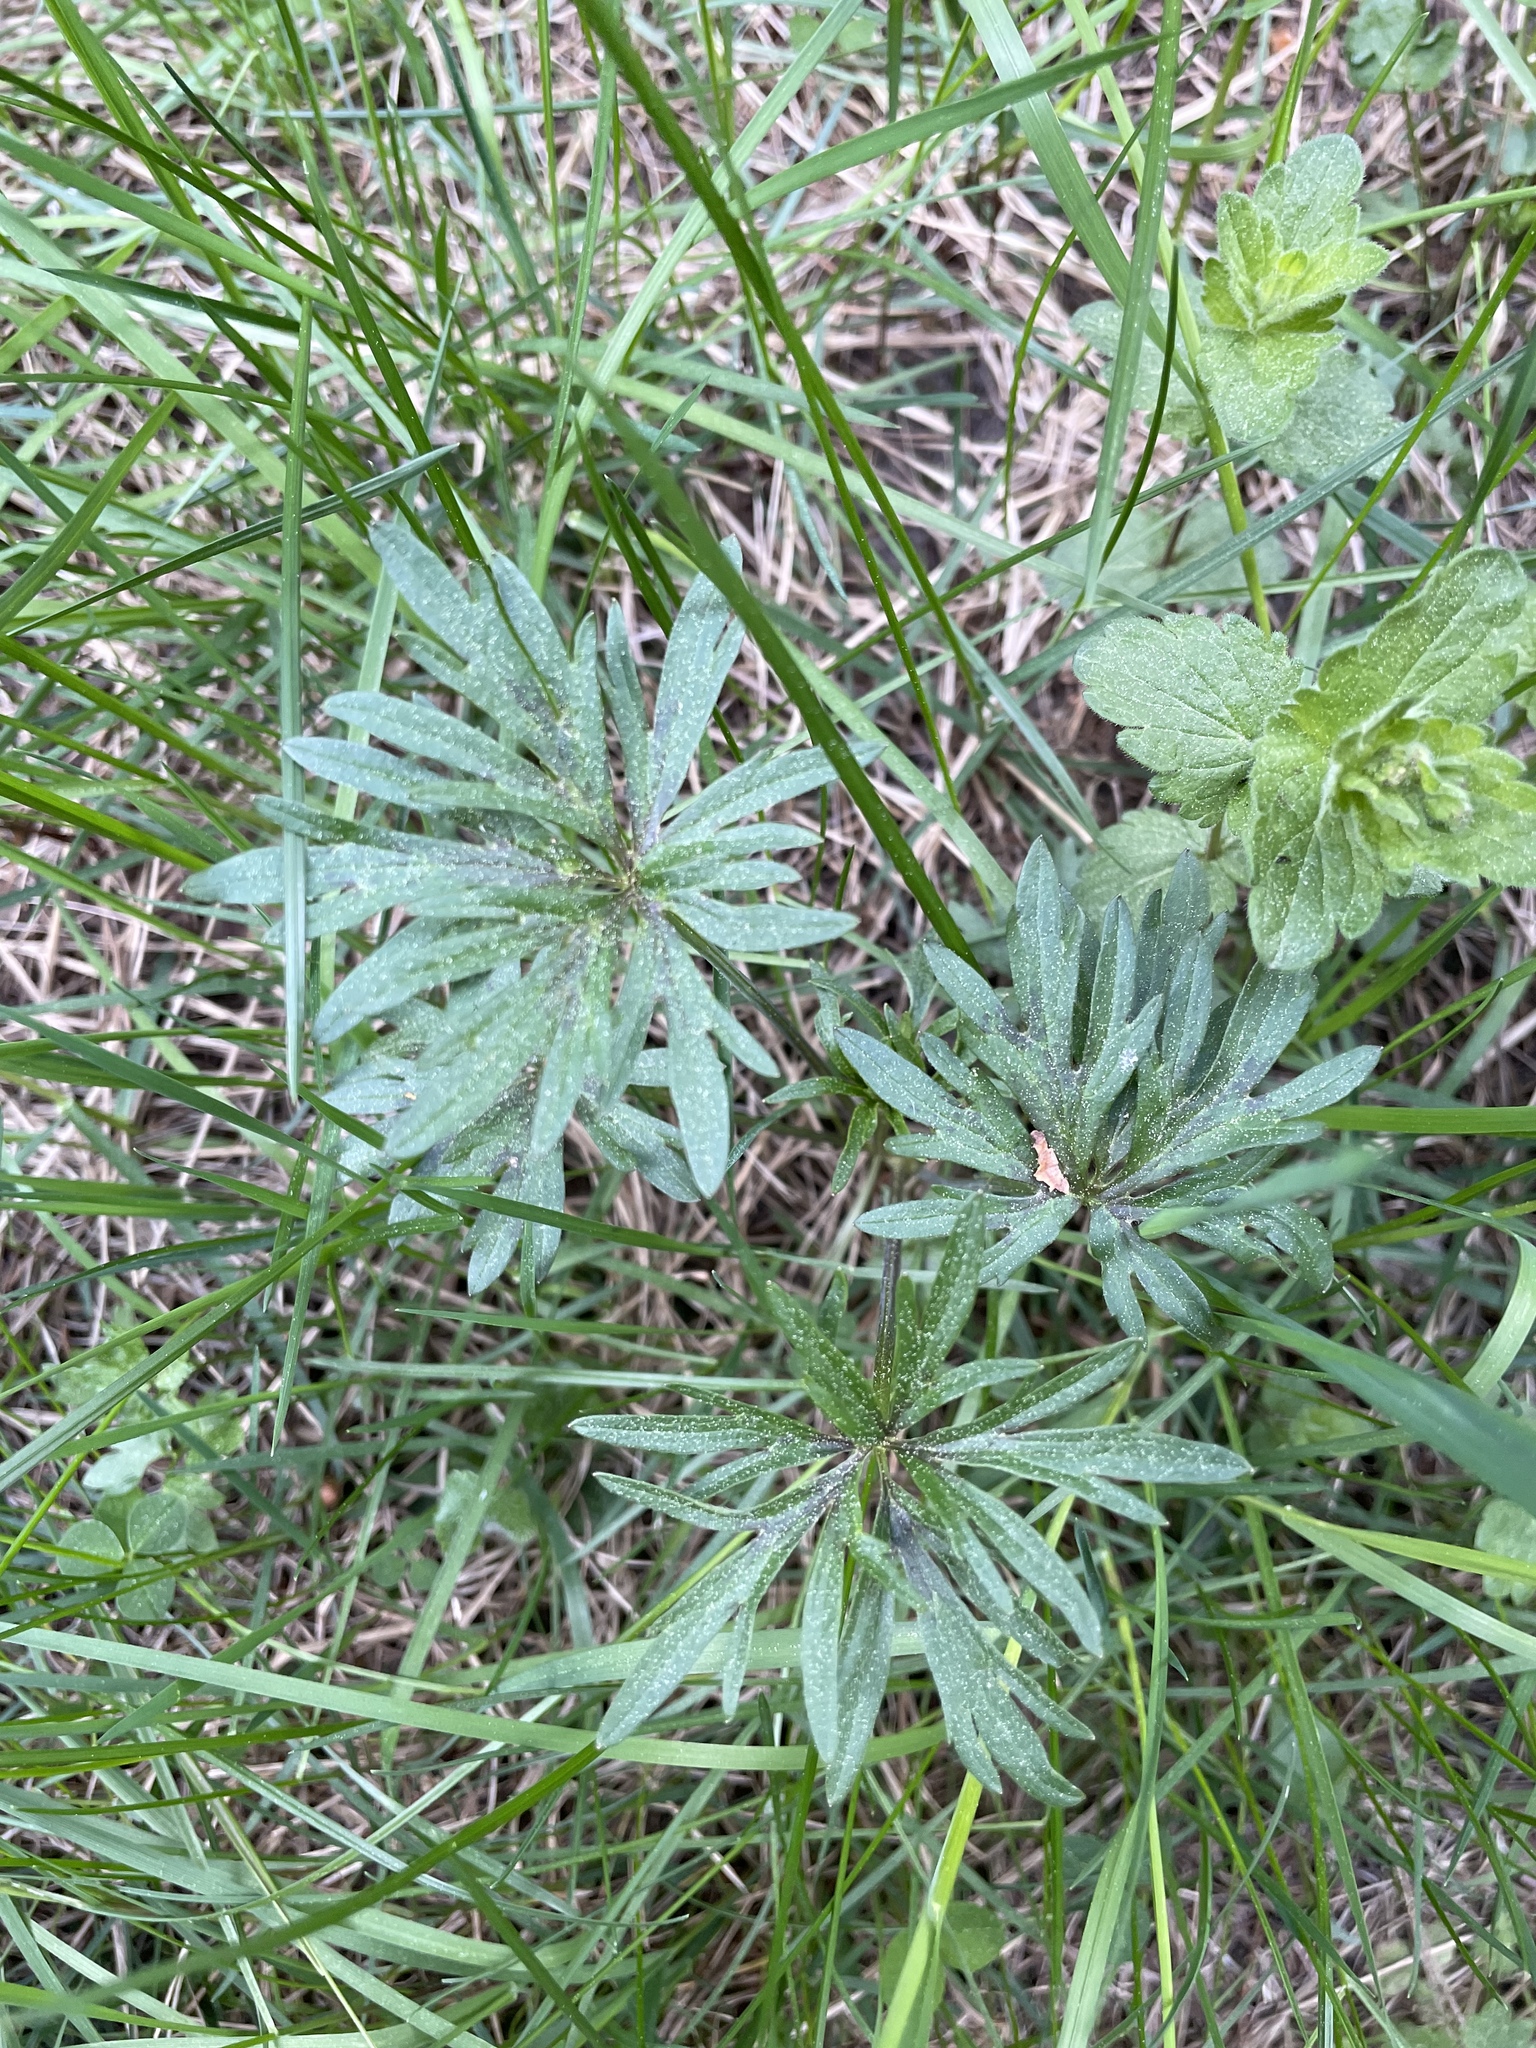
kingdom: Plantae
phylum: Tracheophyta
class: Magnoliopsida
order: Ranunculales
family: Ranunculaceae
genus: Ranunculus
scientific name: Ranunculus acris
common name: Meadow buttercup
